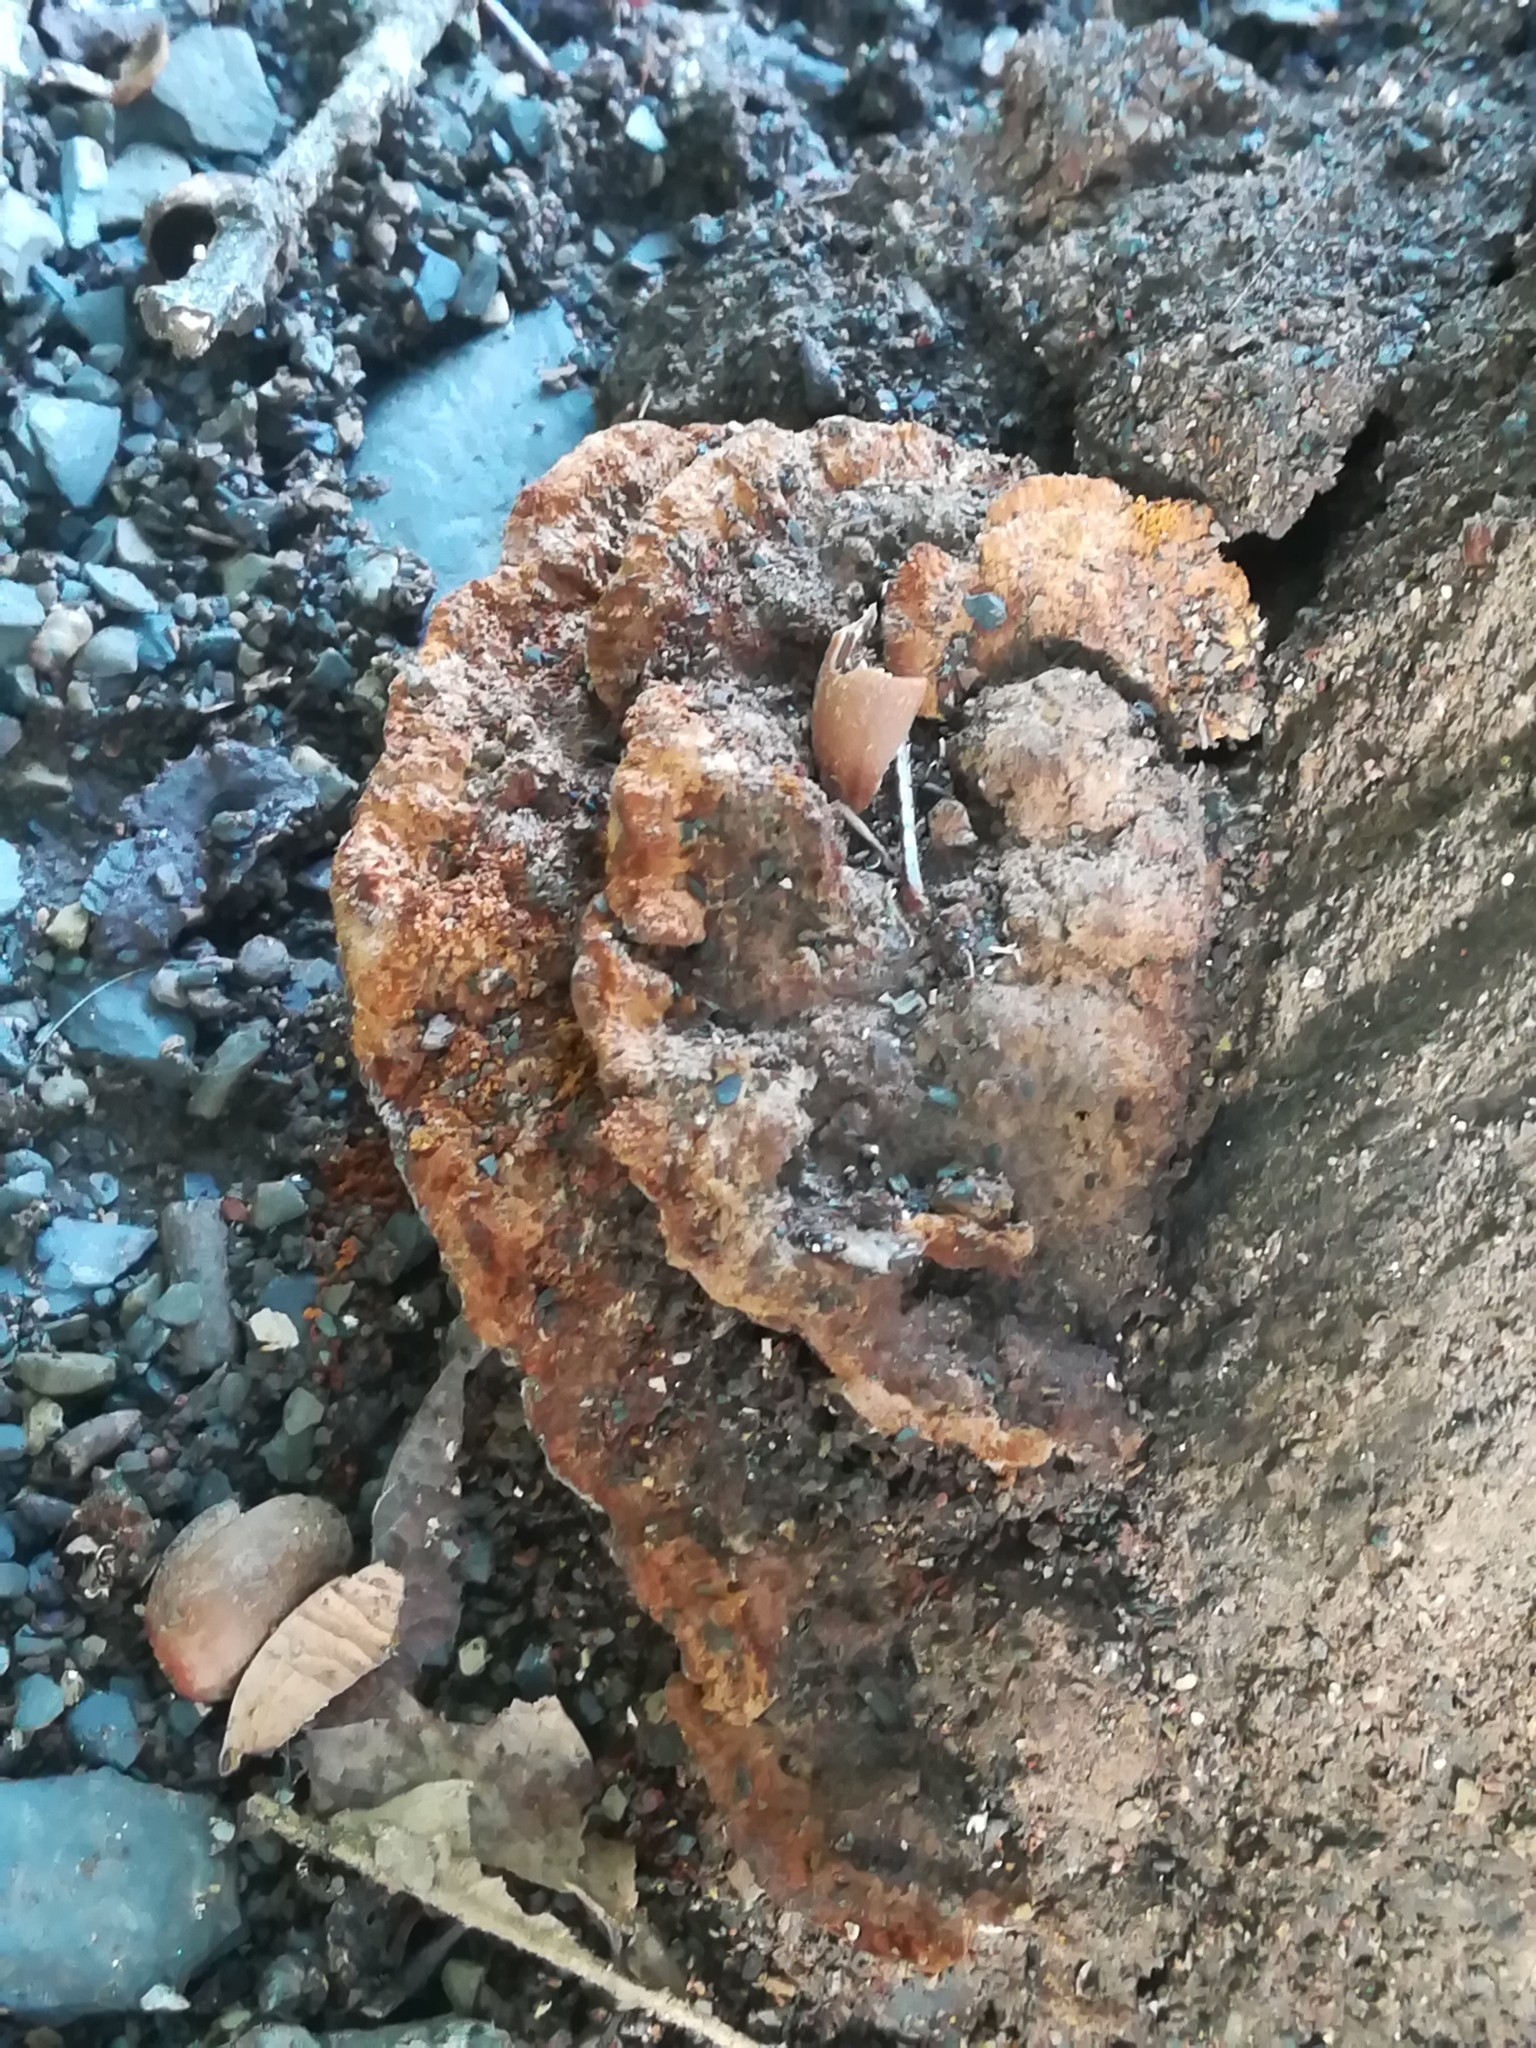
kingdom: Fungi
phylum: Basidiomycota
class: Agaricomycetes
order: Hymenochaetales
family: Hymenochaetaceae
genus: Phellinus
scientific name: Phellinus gilvus
